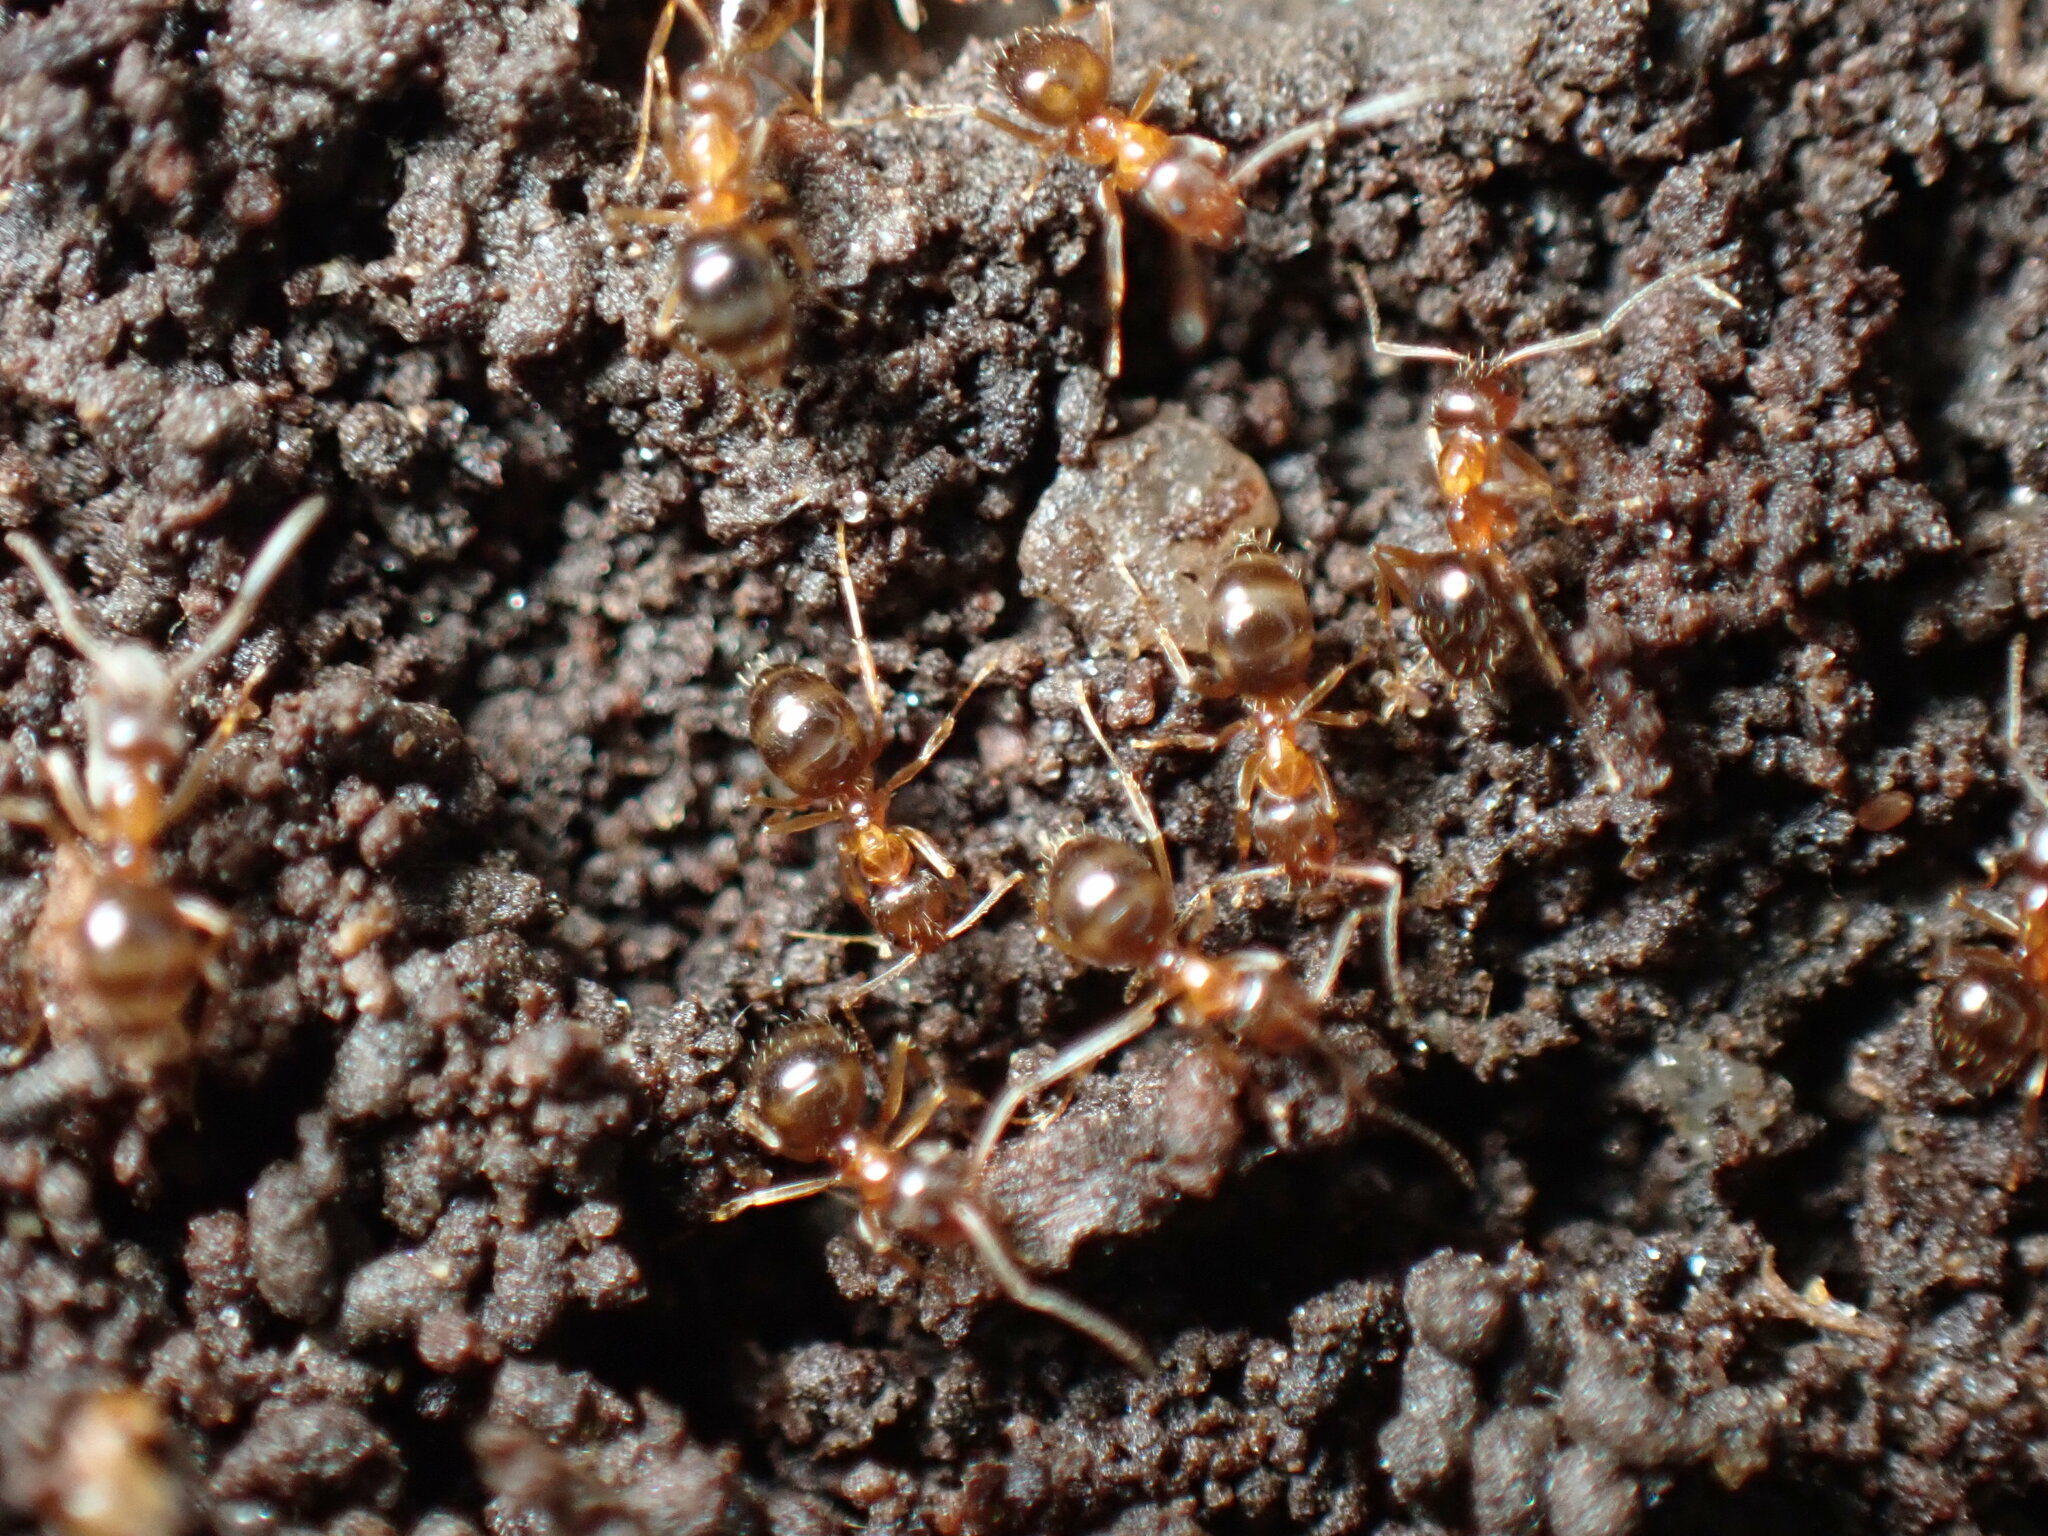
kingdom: Animalia
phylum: Arthropoda
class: Insecta
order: Hymenoptera
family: Formicidae
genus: Paratrechina
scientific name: Paratrechina flavipes
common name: Eastern asian formicine ant
